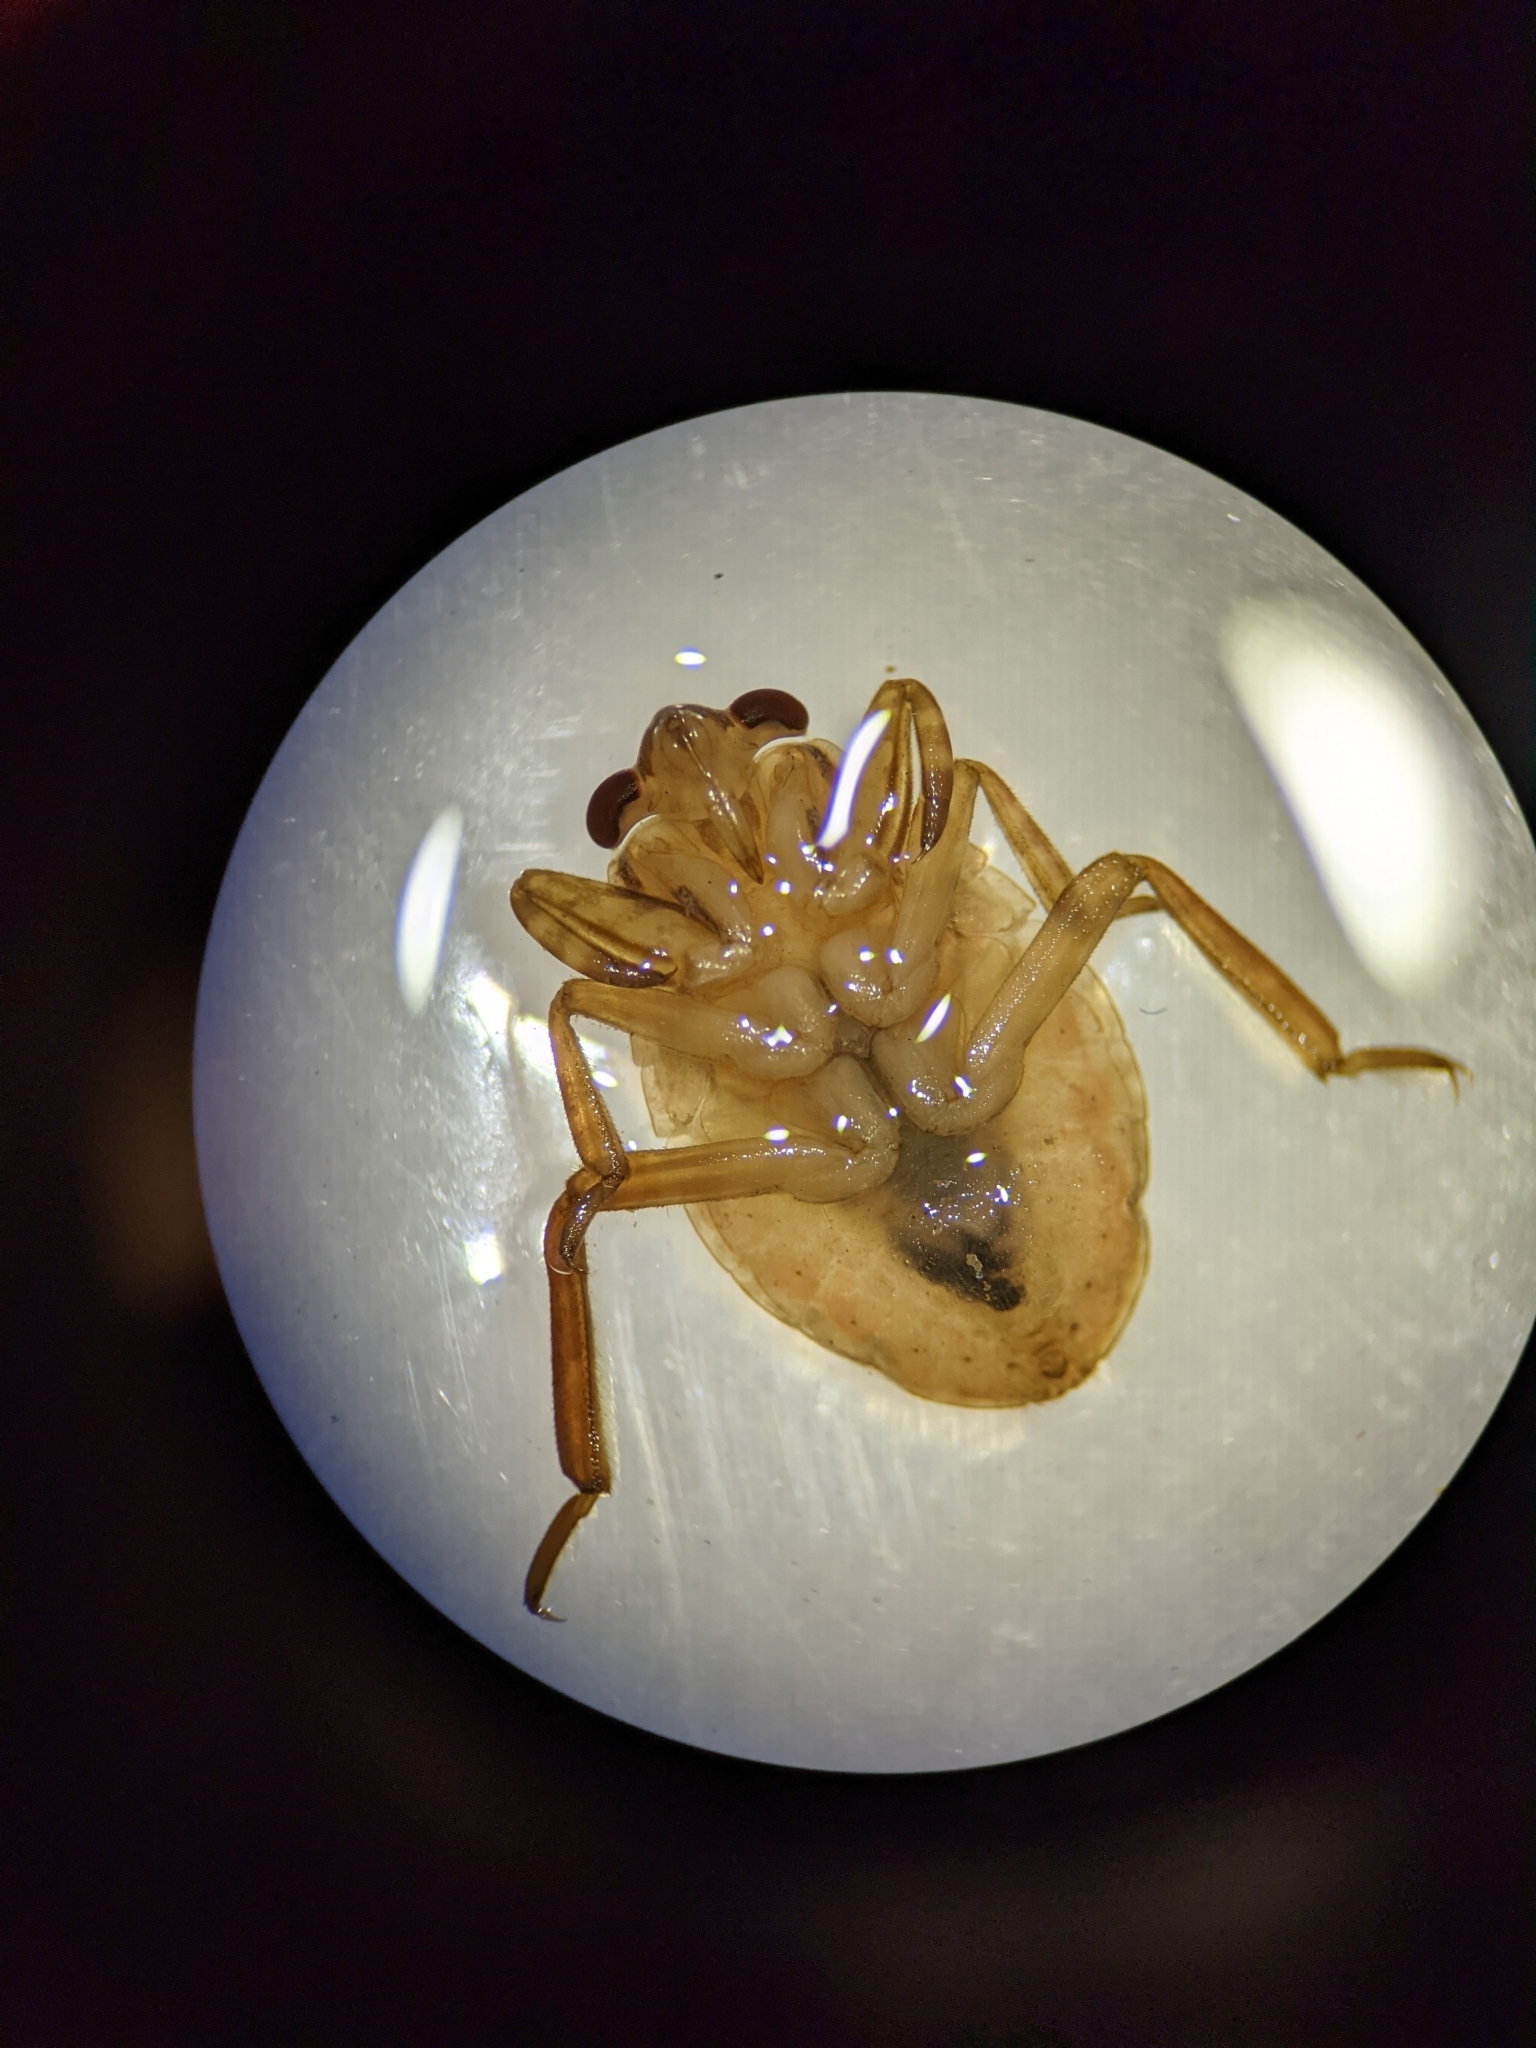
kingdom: Animalia
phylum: Arthropoda
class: Insecta
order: Hemiptera
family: Belostomatidae
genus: Abedus
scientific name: Abedus
